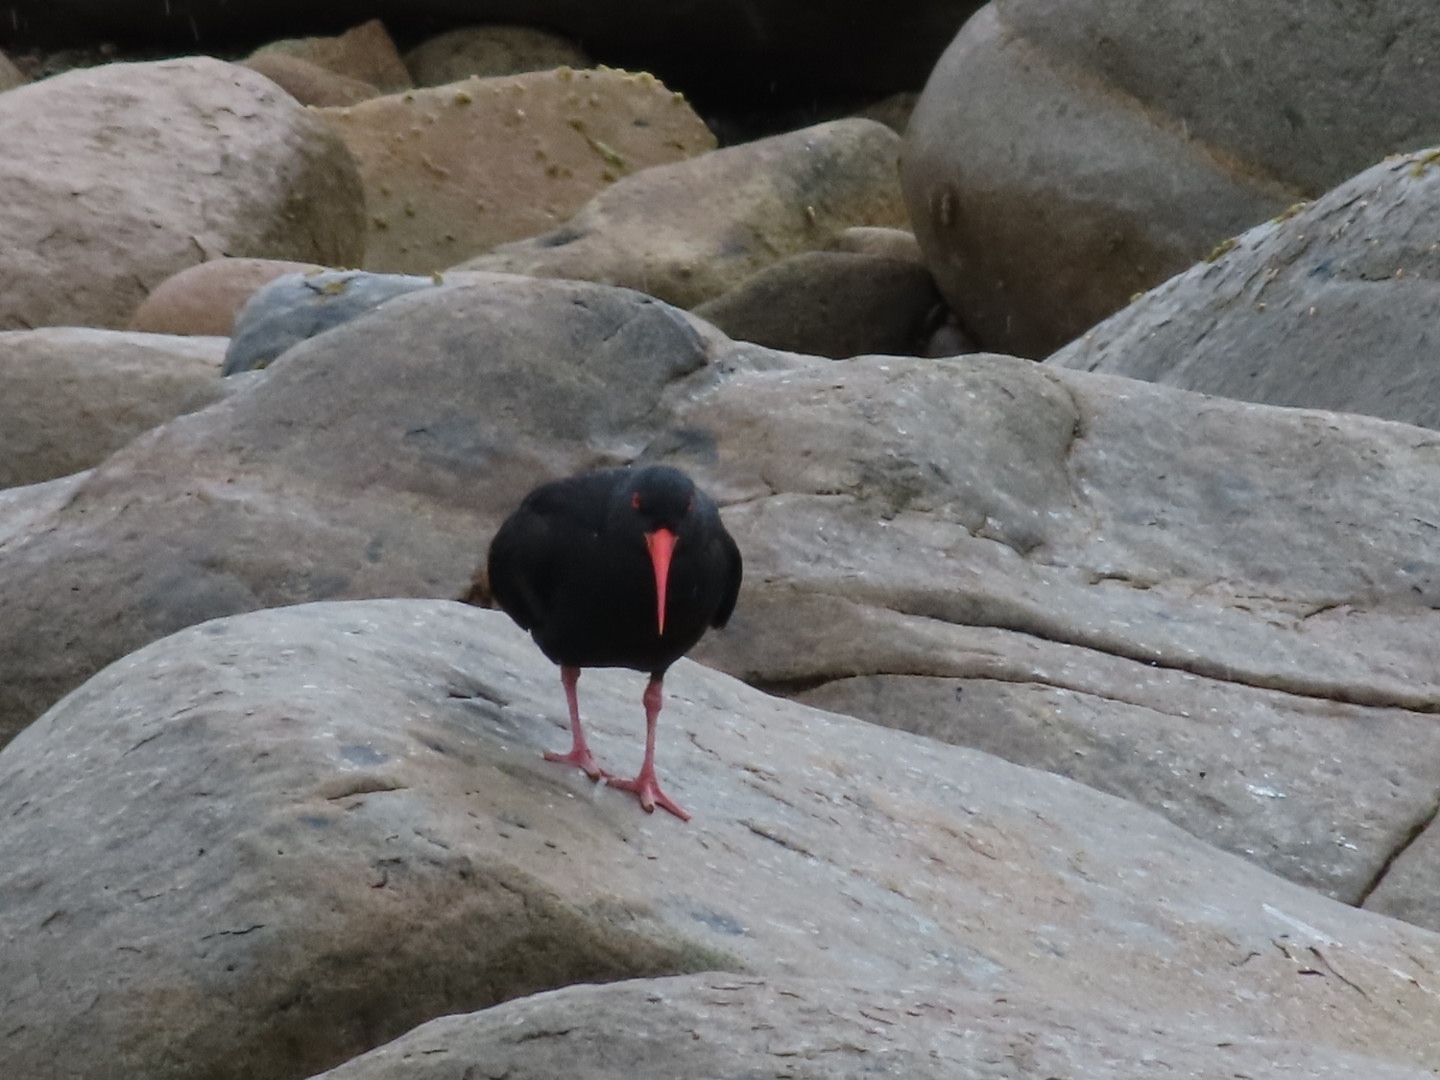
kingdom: Animalia
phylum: Chordata
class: Aves
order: Charadriiformes
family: Haematopodidae
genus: Haematopus
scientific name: Haematopus unicolor
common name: Variable oystercatcher
